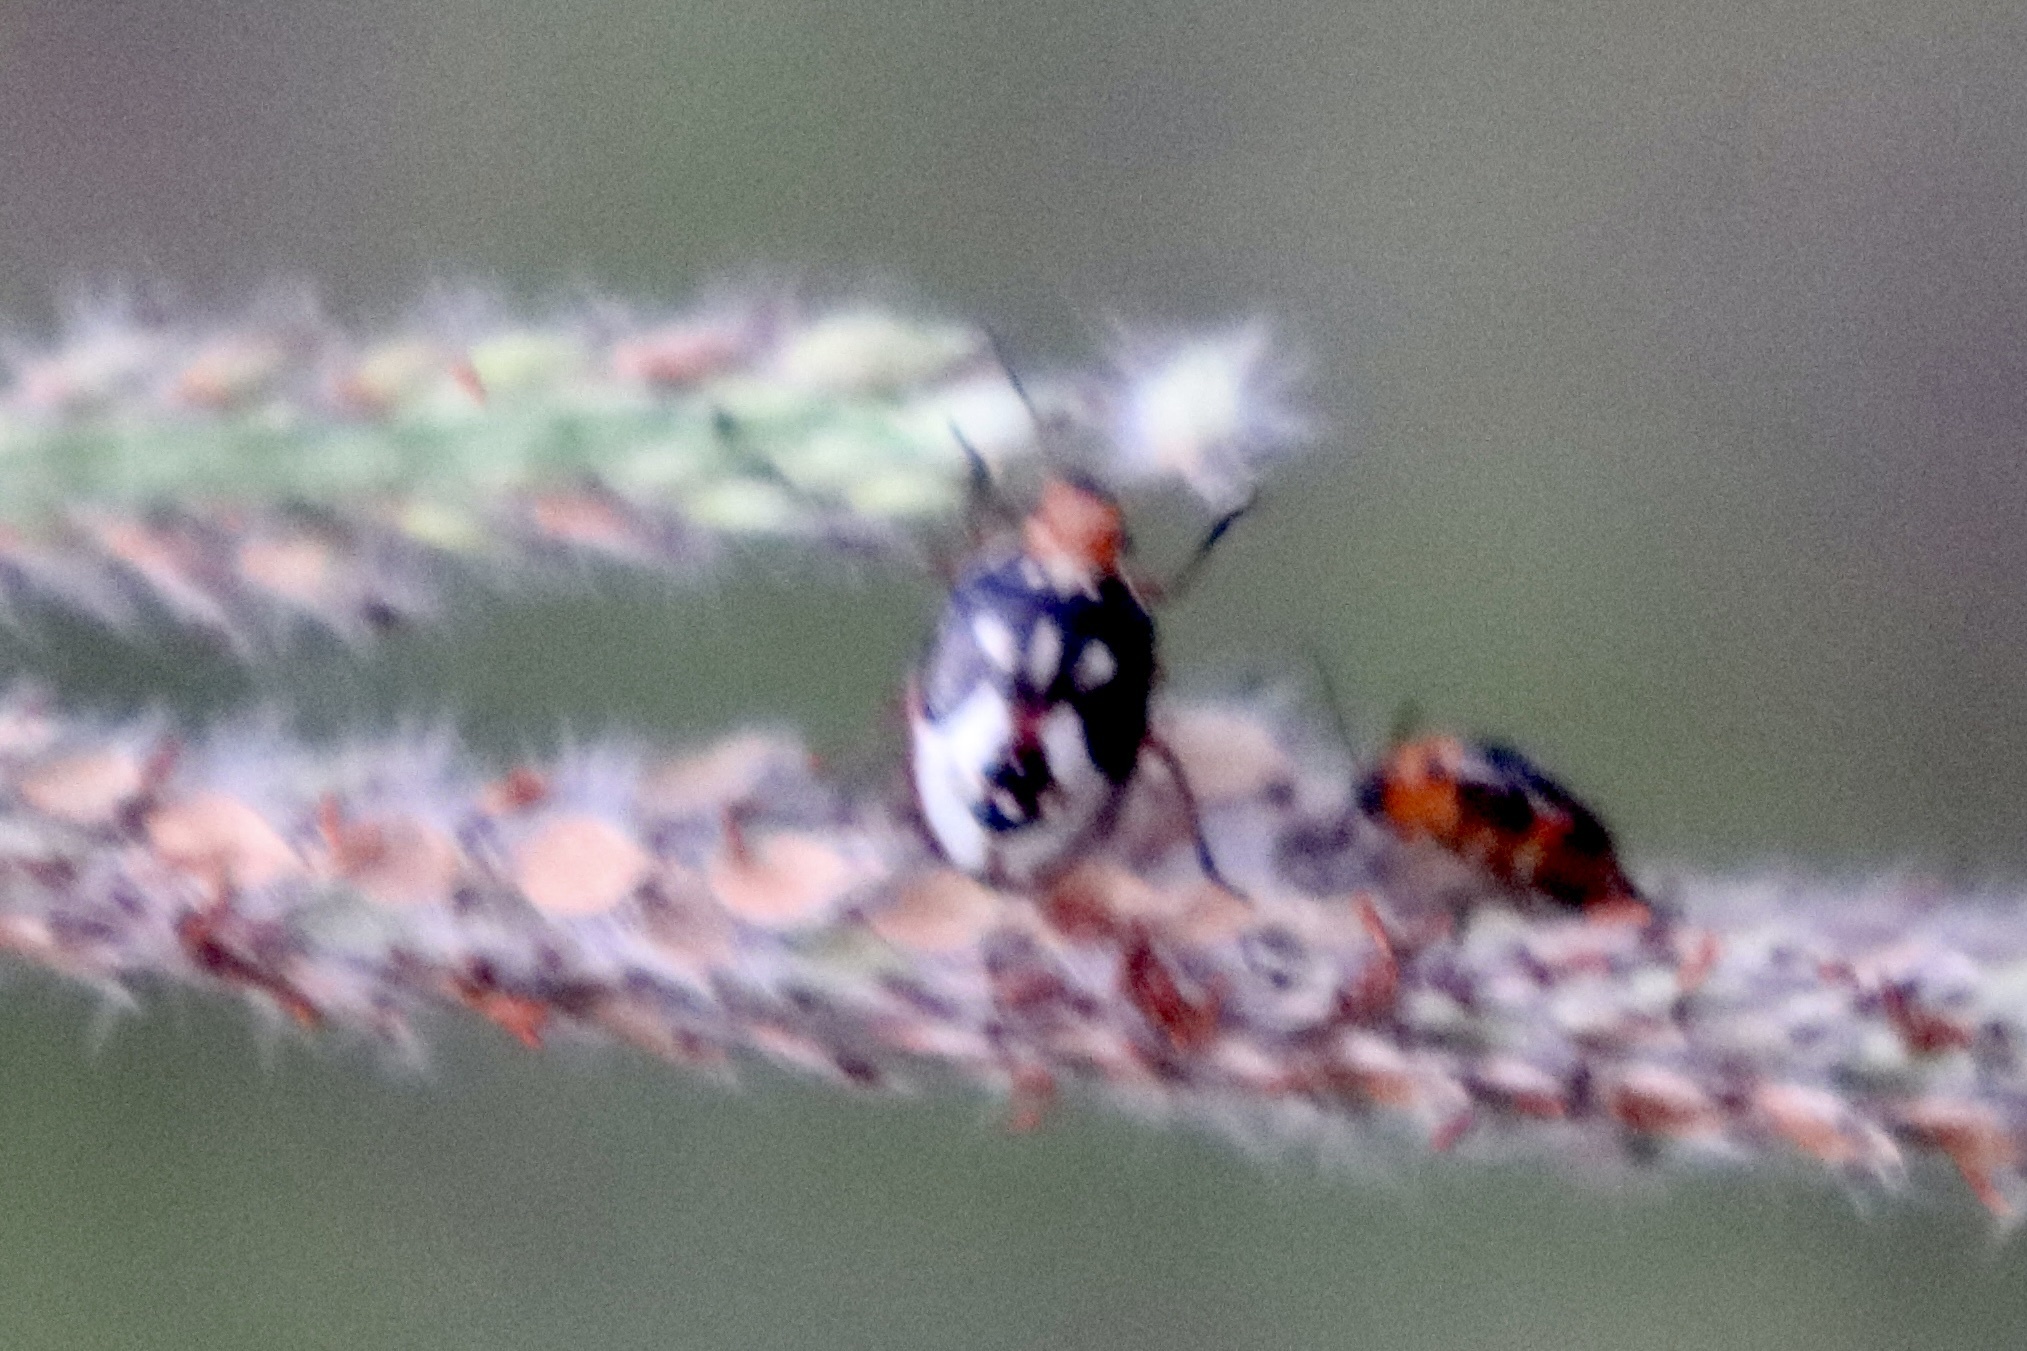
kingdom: Animalia
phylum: Arthropoda
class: Insecta
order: Hemiptera
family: Pentatomidae
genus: Mormidea
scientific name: Mormidea pama
